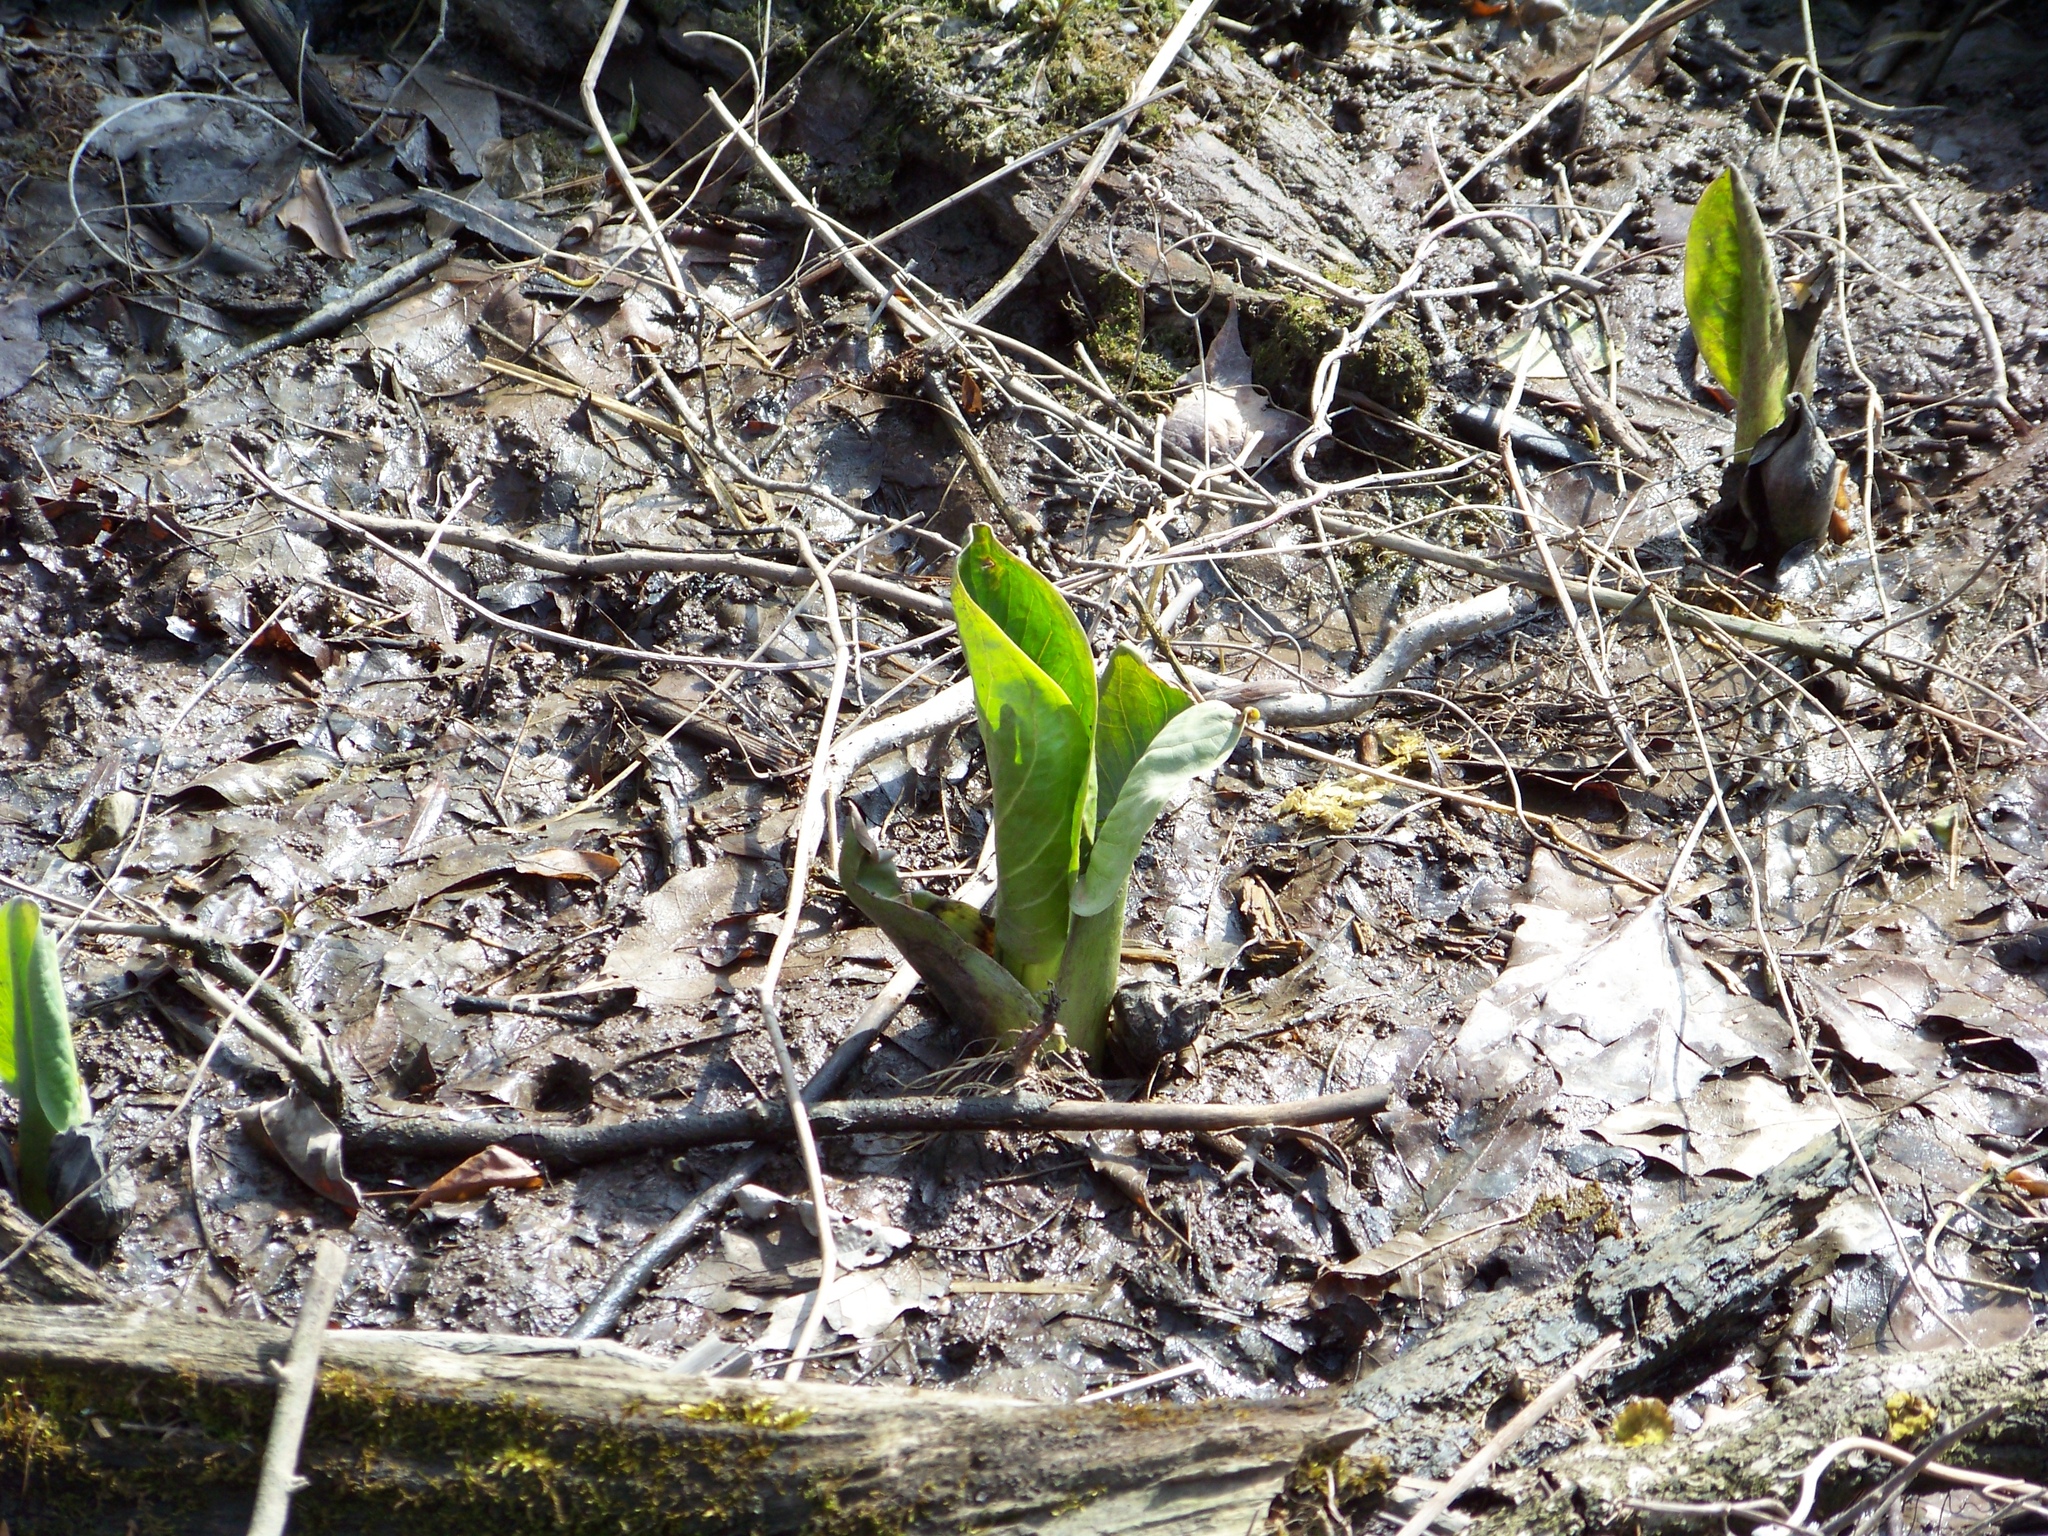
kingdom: Plantae
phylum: Tracheophyta
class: Liliopsida
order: Alismatales
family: Araceae
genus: Symplocarpus
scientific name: Symplocarpus foetidus
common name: Eastern skunk cabbage
